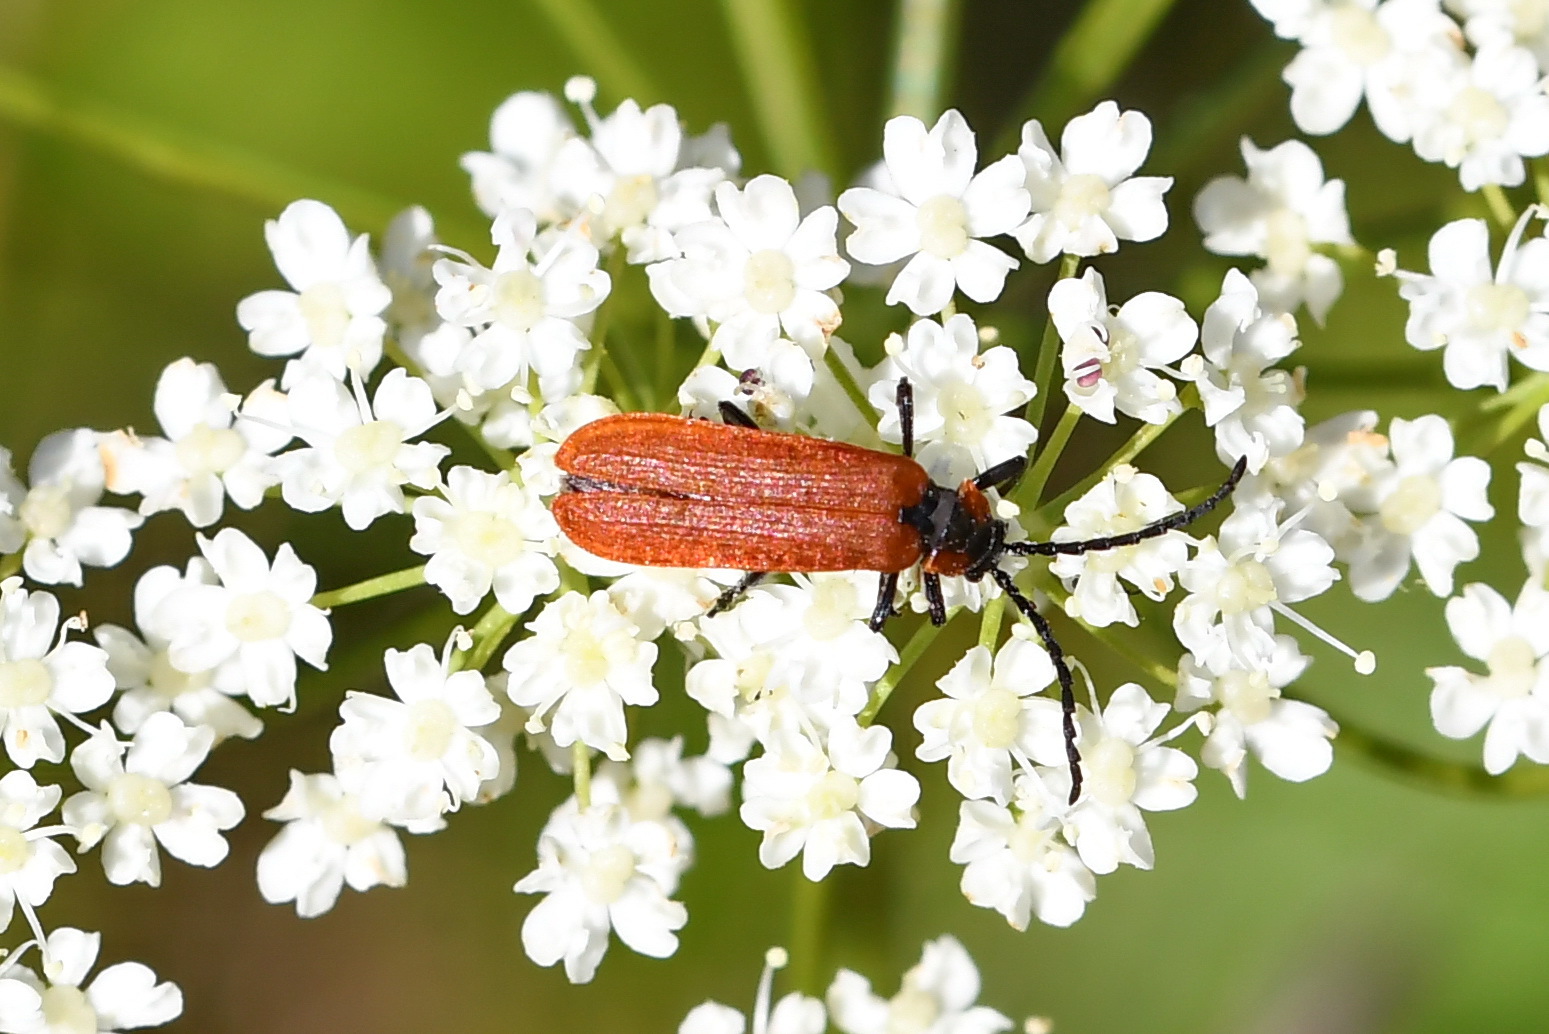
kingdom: Animalia
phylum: Arthropoda
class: Insecta
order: Coleoptera
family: Lycidae
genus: Lygistopterus
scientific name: Lygistopterus sanguineus
